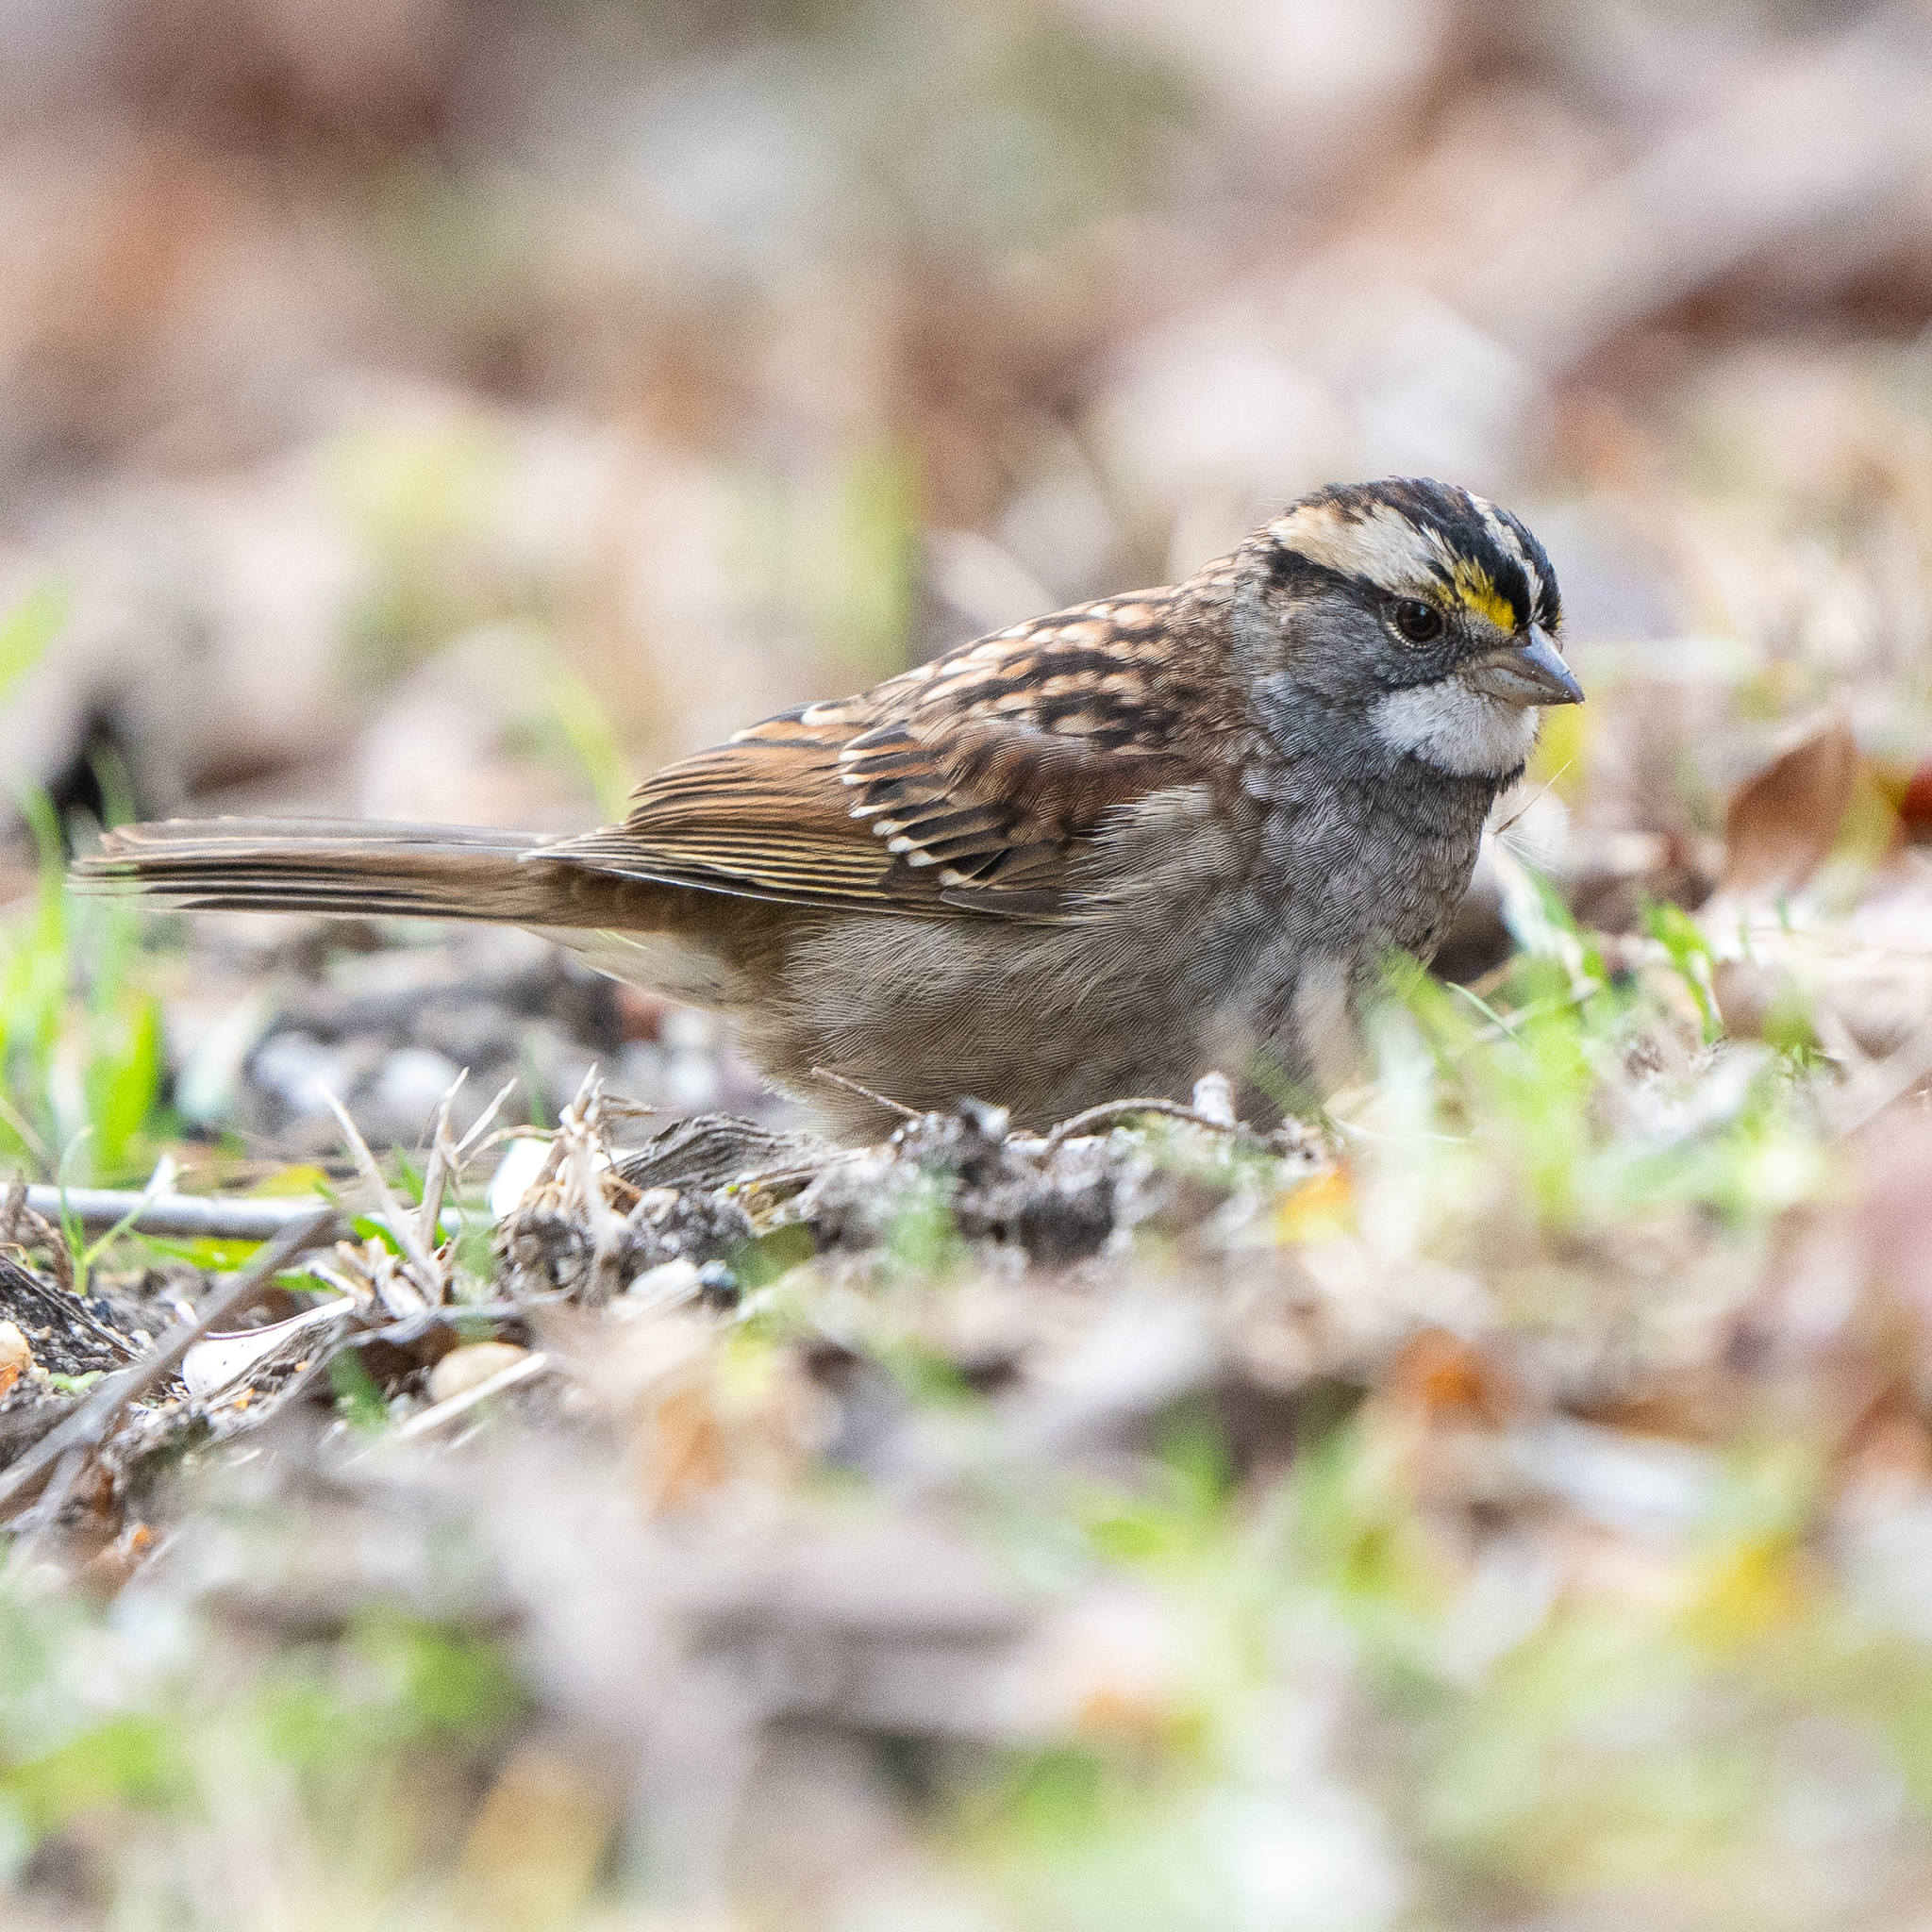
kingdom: Animalia
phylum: Chordata
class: Aves
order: Passeriformes
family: Passerellidae
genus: Zonotrichia
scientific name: Zonotrichia albicollis
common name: White-throated sparrow
